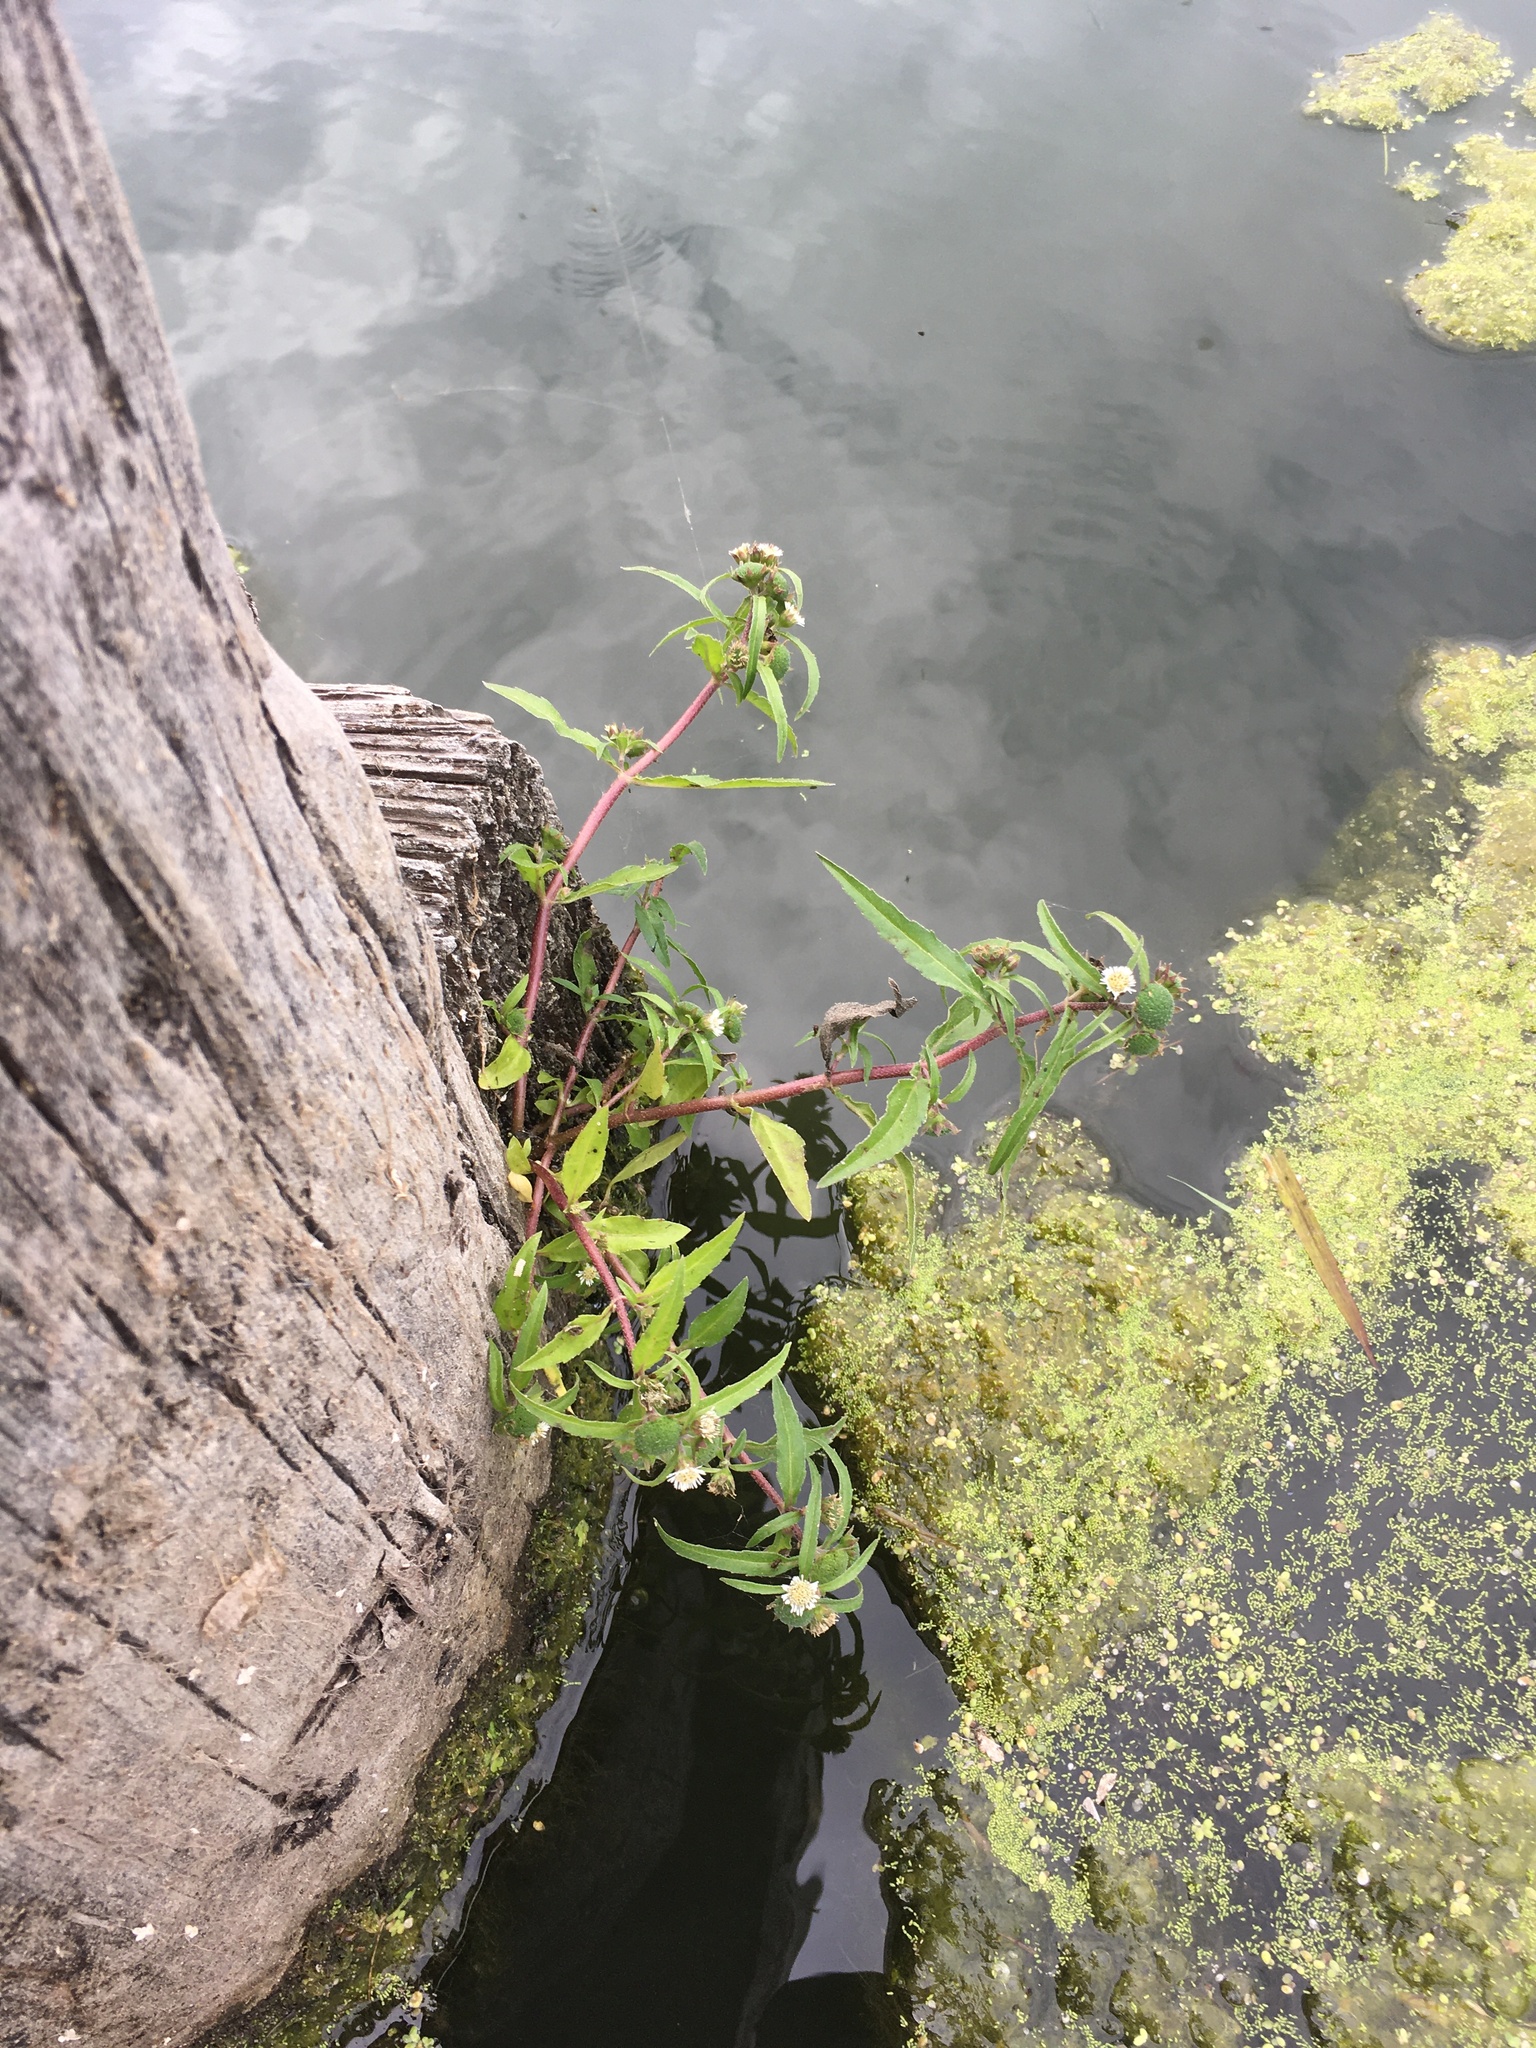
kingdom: Plantae
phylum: Tracheophyta
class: Magnoliopsida
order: Asterales
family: Asteraceae
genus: Eclipta
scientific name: Eclipta prostrata
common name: False daisy
